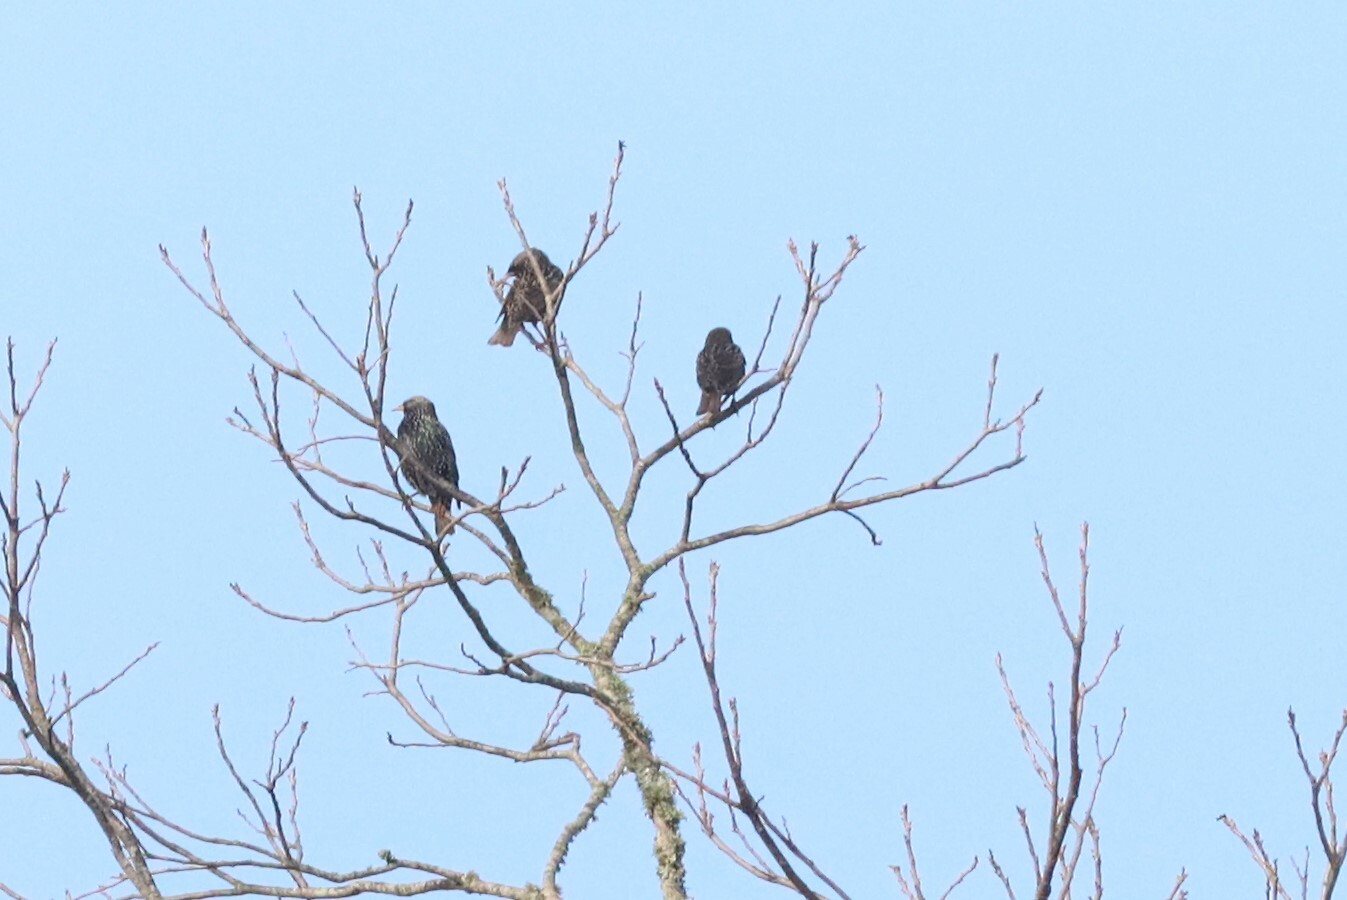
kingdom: Animalia
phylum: Chordata
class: Aves
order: Passeriformes
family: Sturnidae
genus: Sturnus
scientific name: Sturnus vulgaris
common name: Common starling
